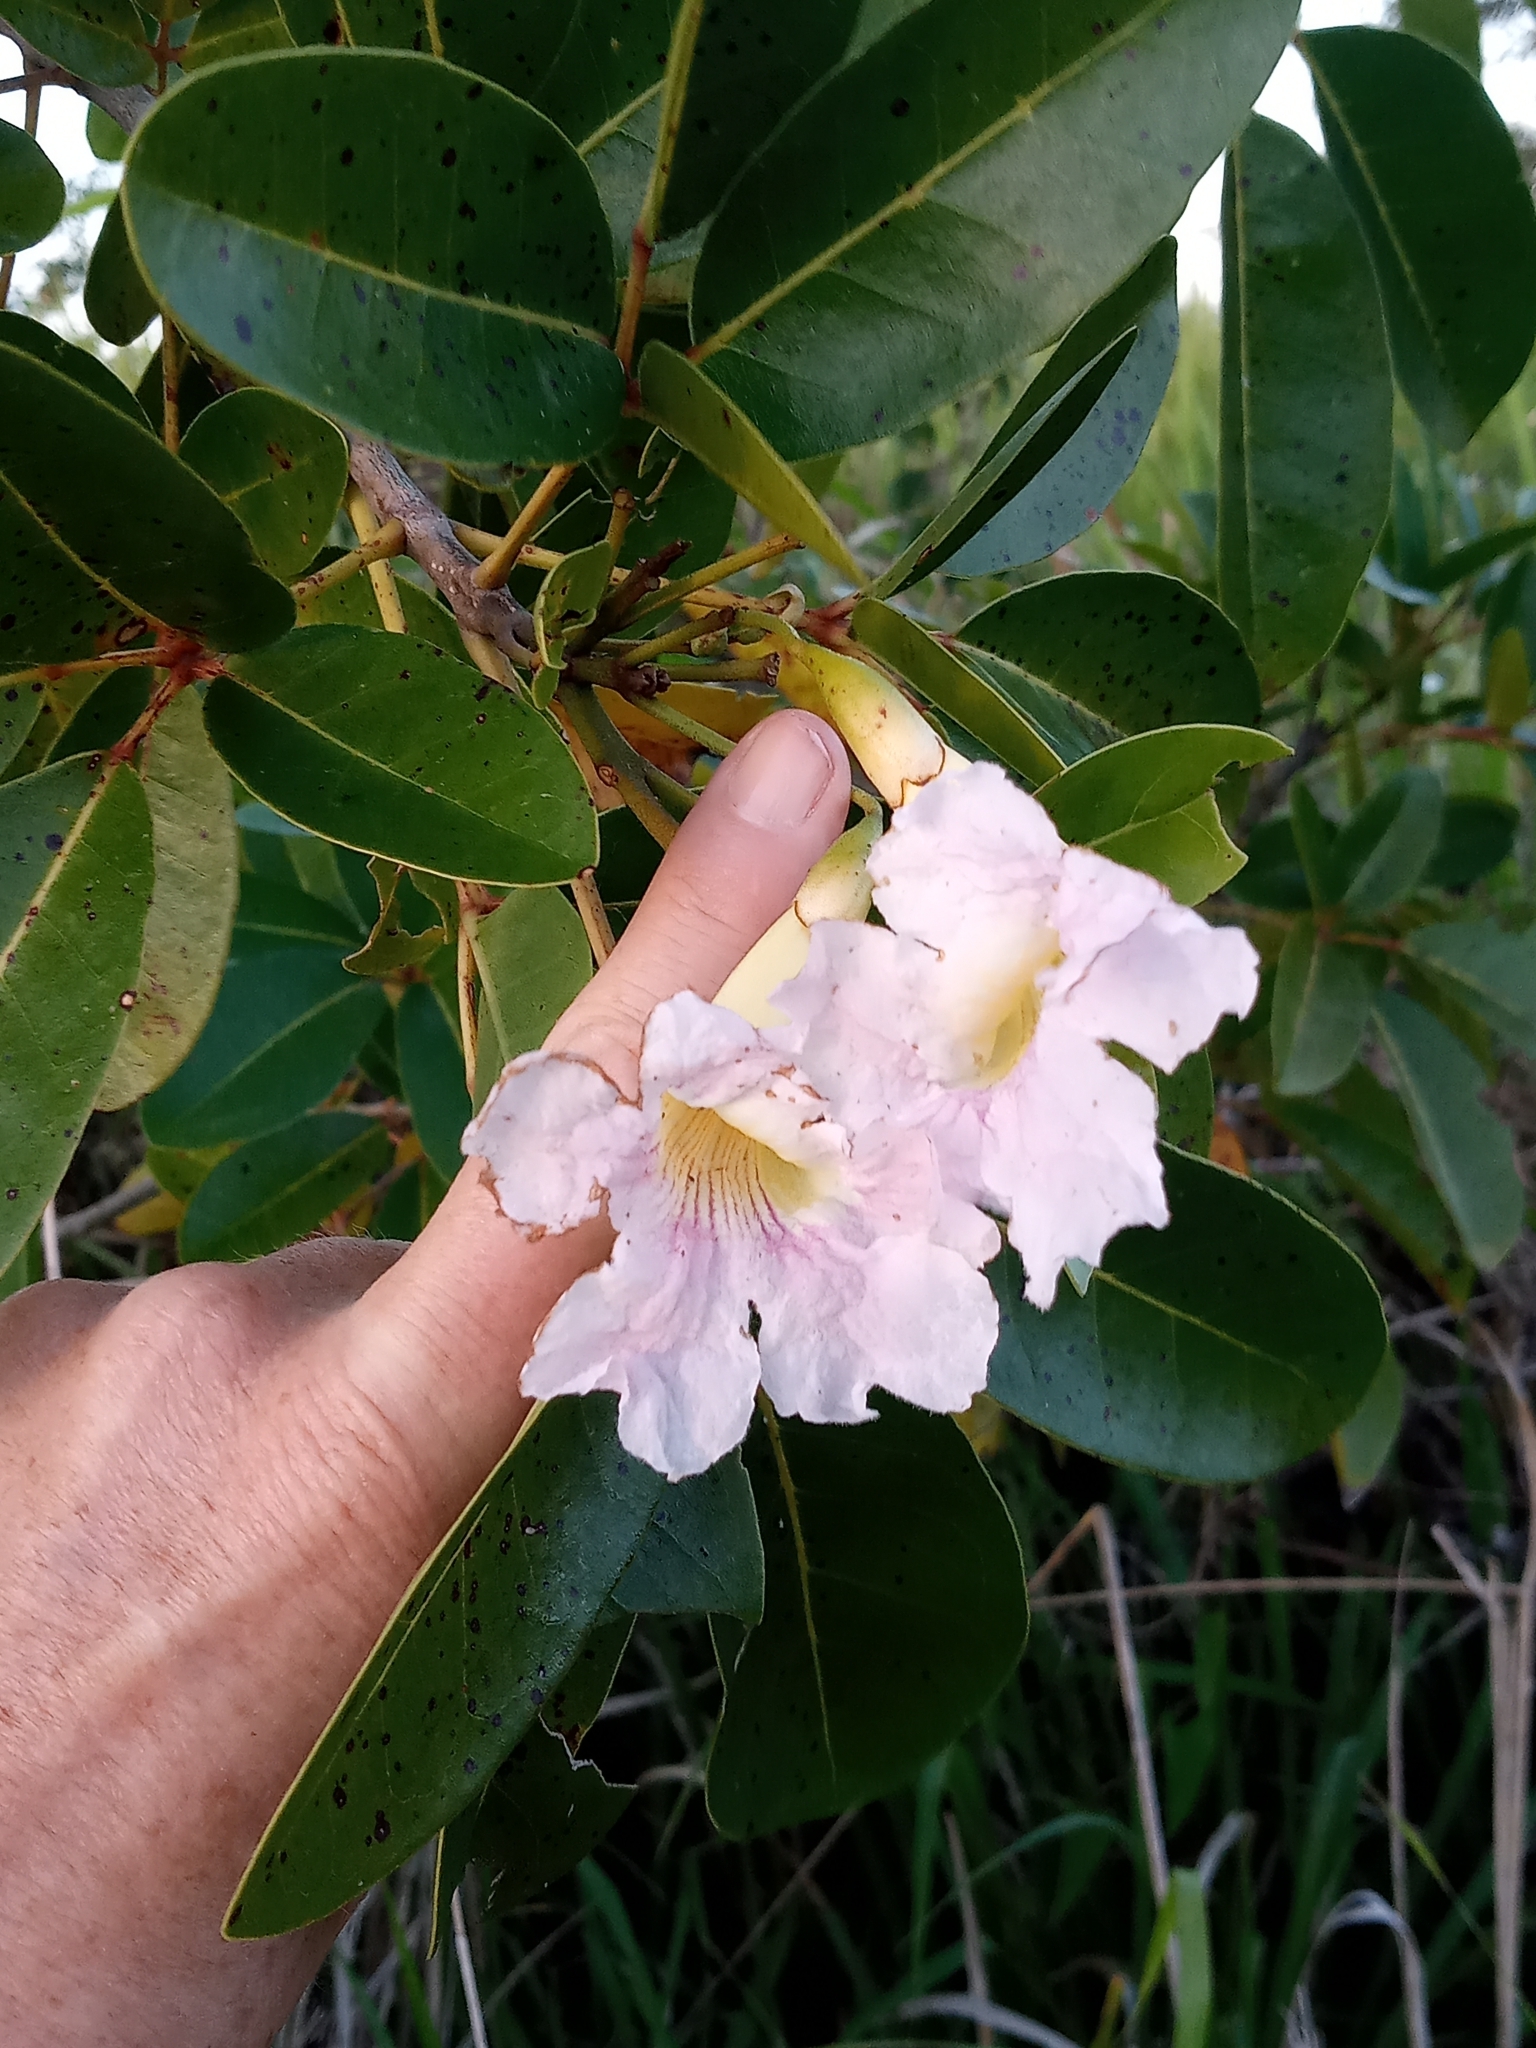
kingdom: Plantae
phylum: Tracheophyta
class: Magnoliopsida
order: Lamiales
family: Bignoniaceae
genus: Tabebuia
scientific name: Tabebuia heterophylla
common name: White cedar
